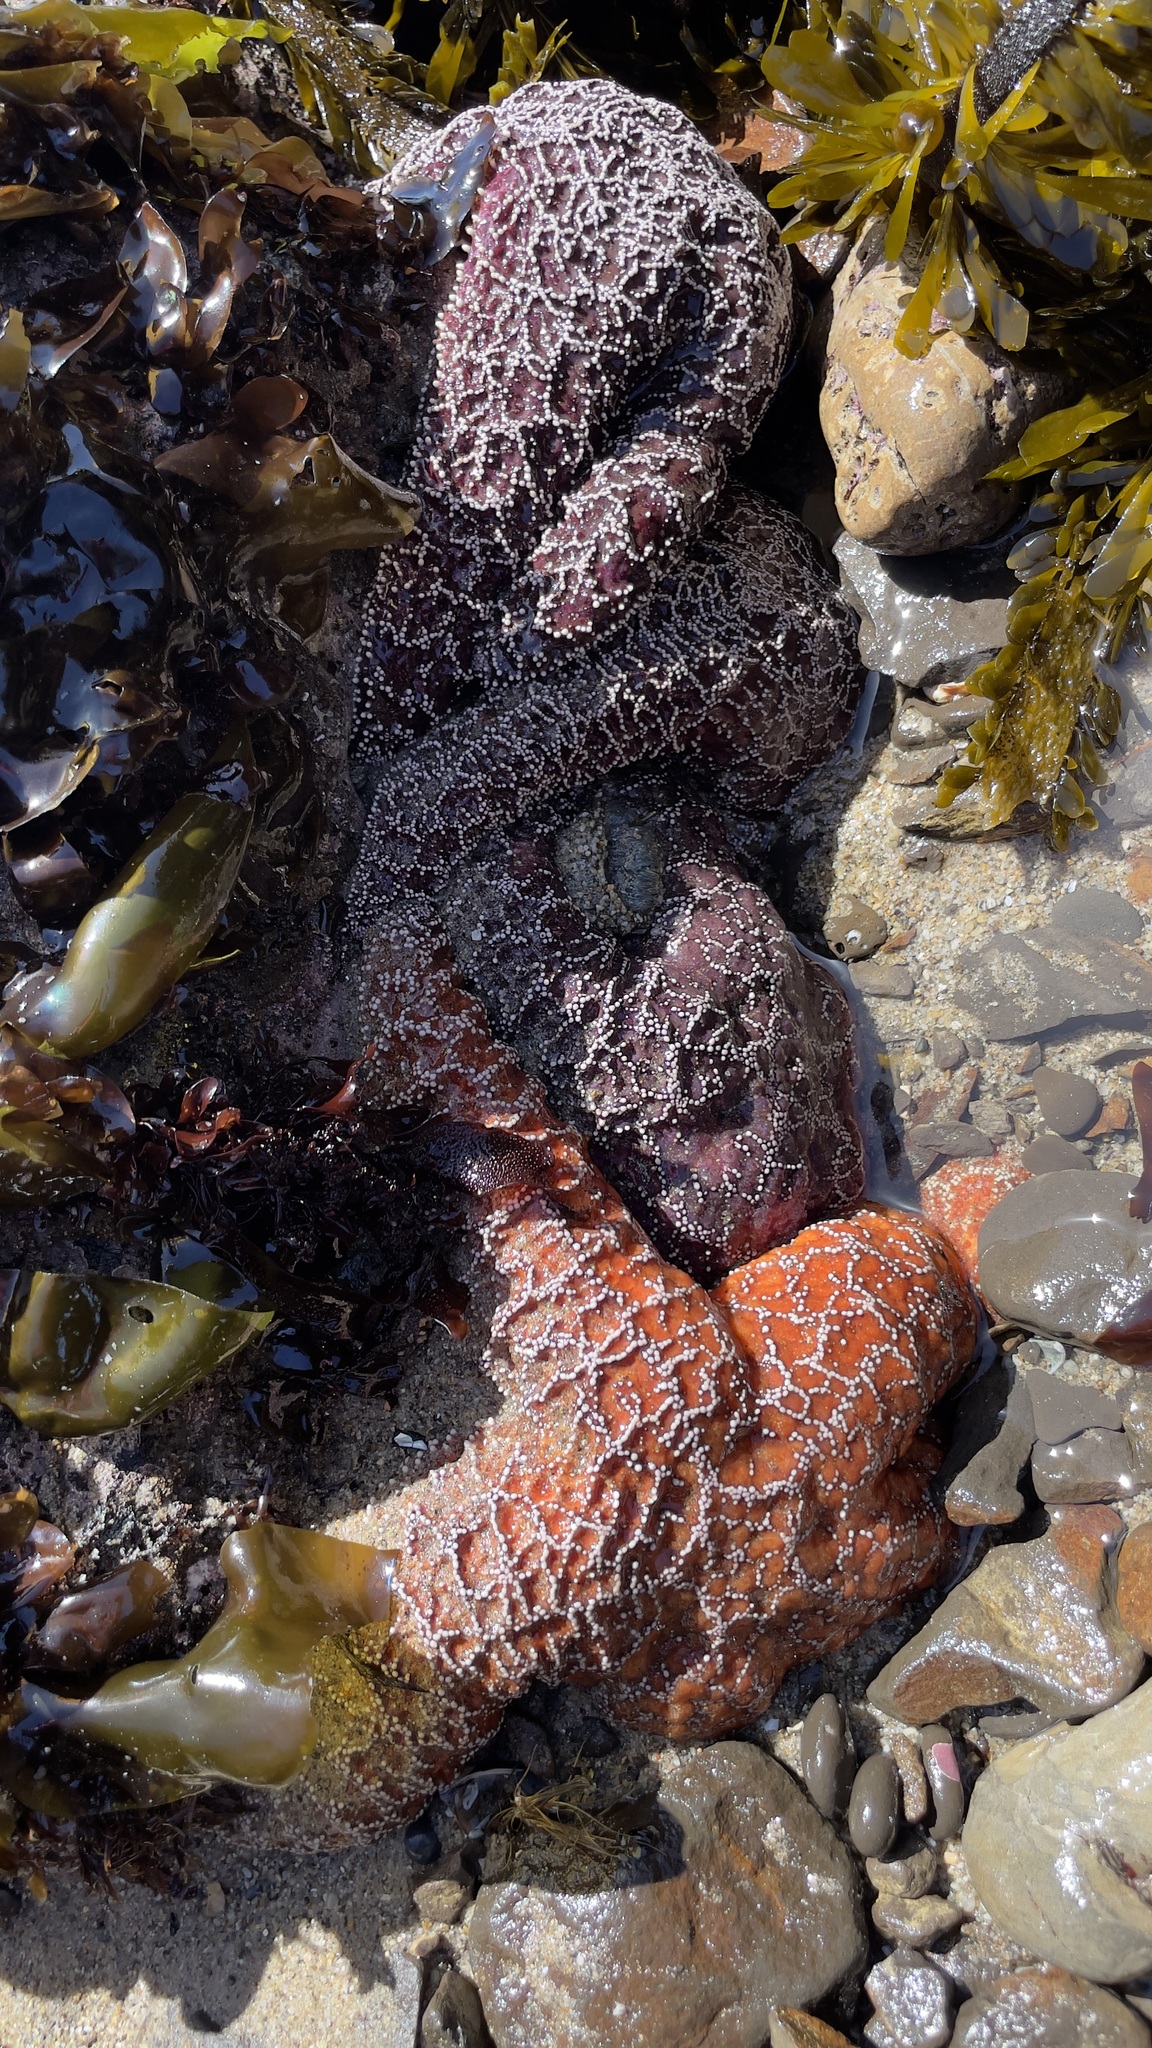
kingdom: Animalia
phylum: Echinodermata
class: Asteroidea
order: Forcipulatida
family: Asteriidae
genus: Pisaster
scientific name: Pisaster ochraceus
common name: Ochre stars
